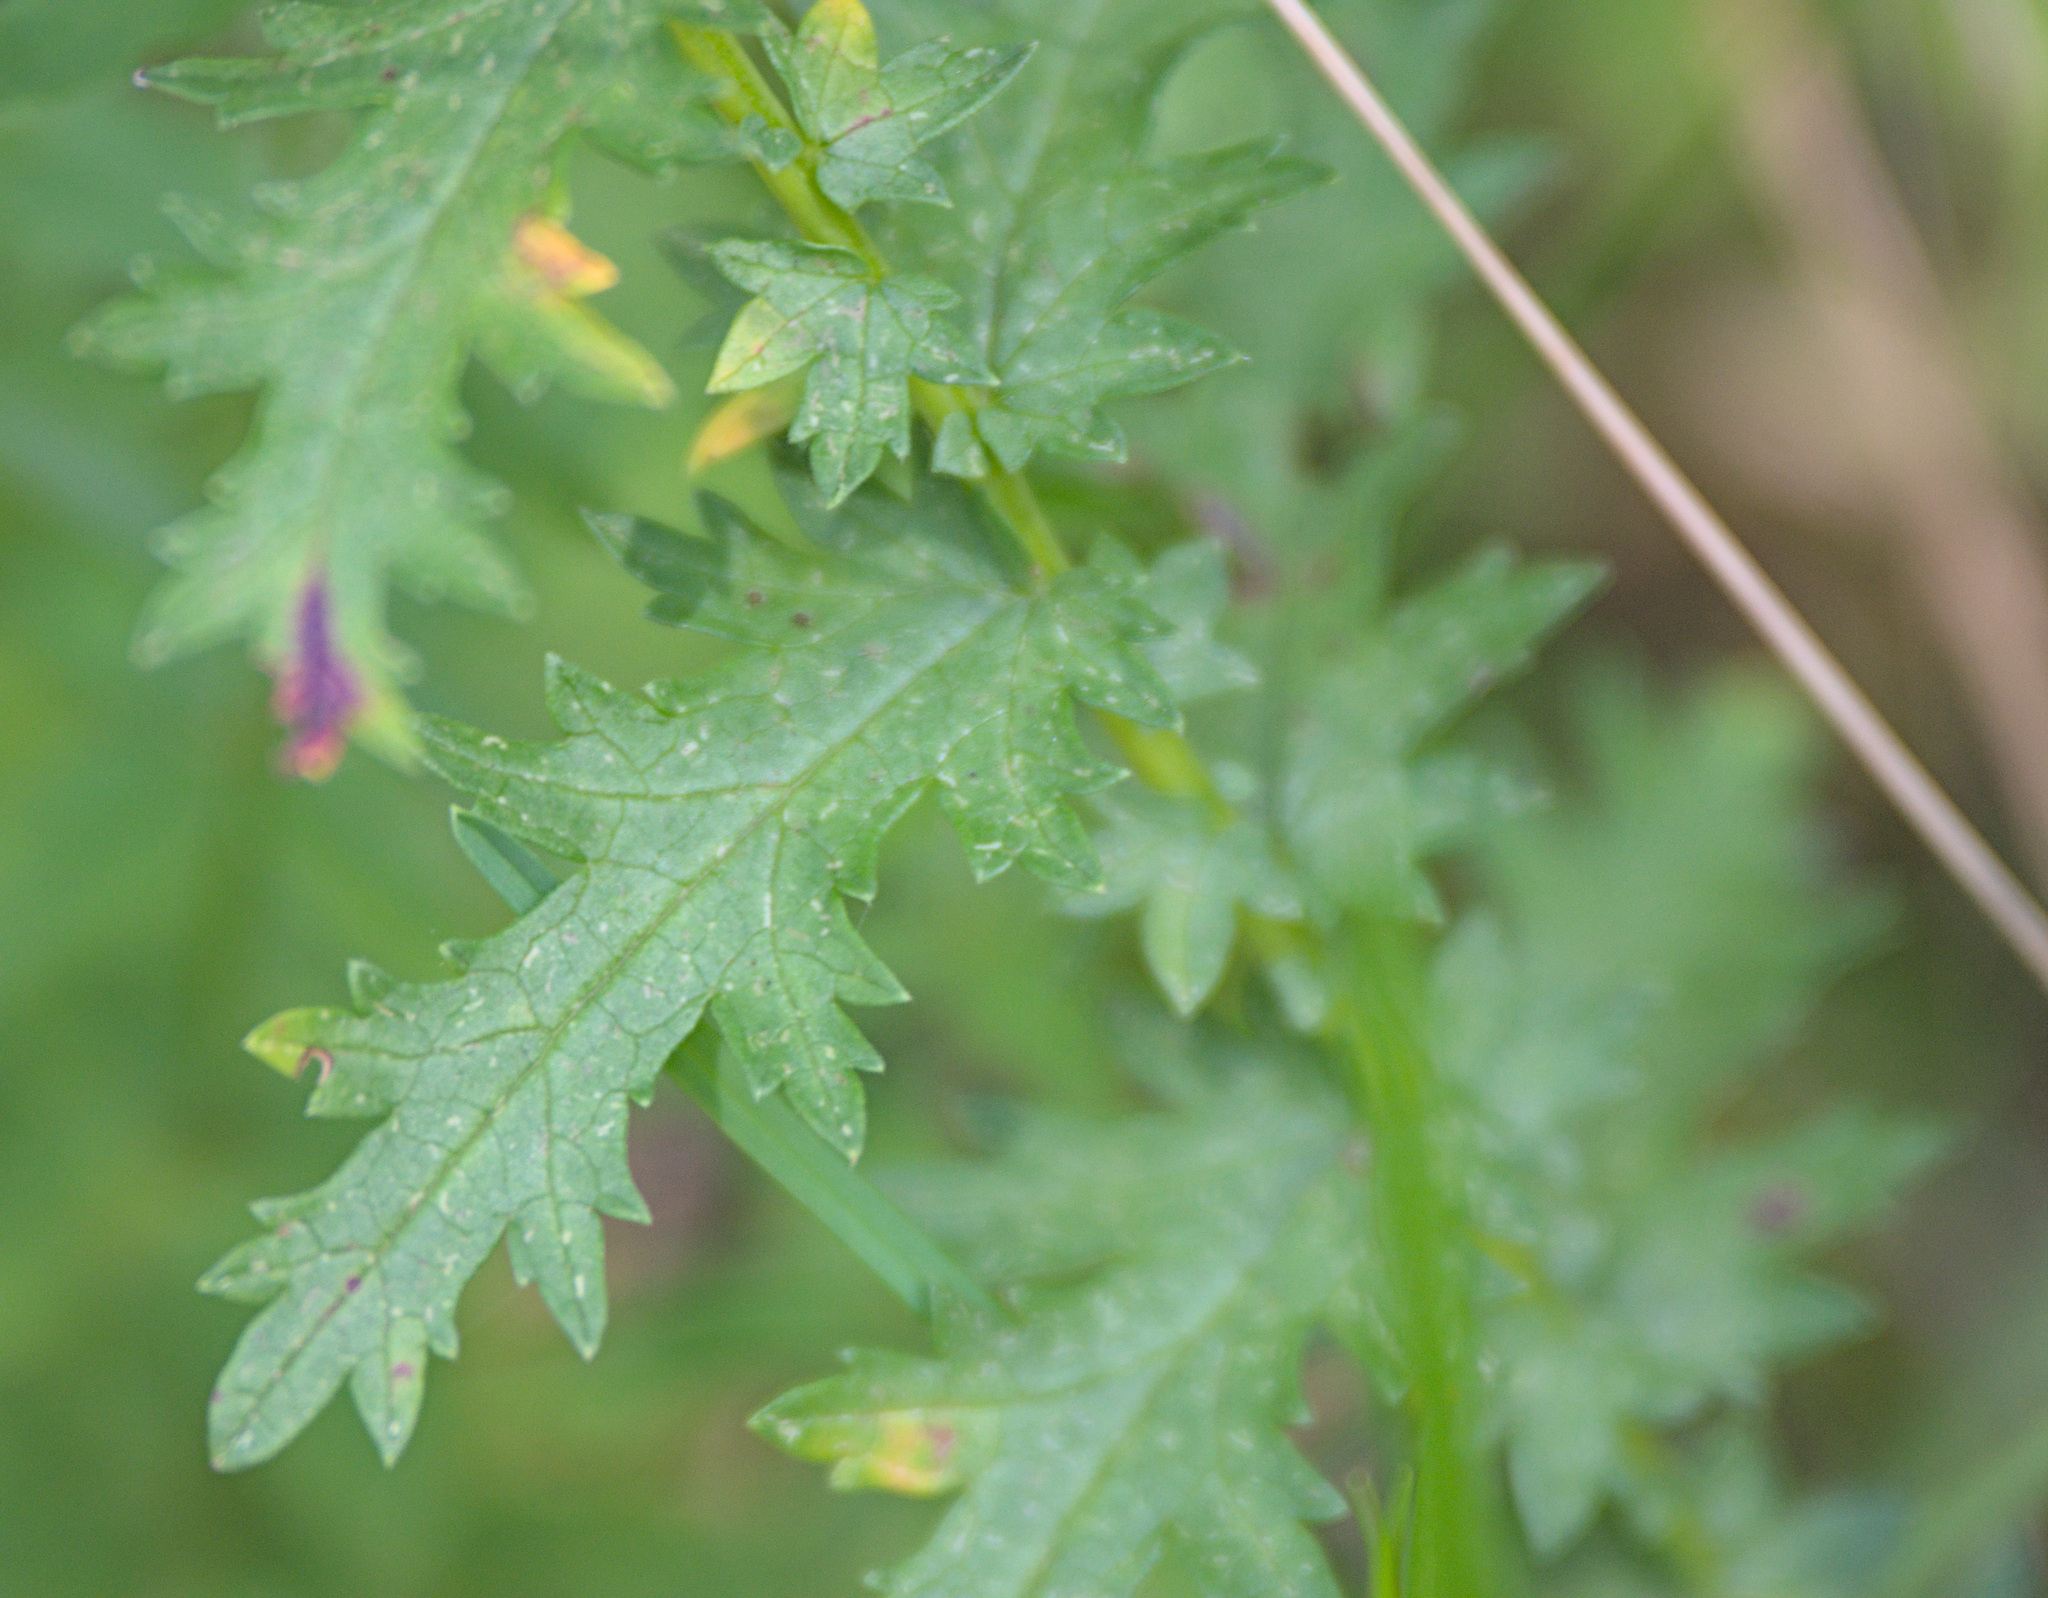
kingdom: Plantae
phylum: Tracheophyta
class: Magnoliopsida
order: Rosales
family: Rosaceae
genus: Filipendula
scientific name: Filipendula vulgaris
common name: Dropwort
